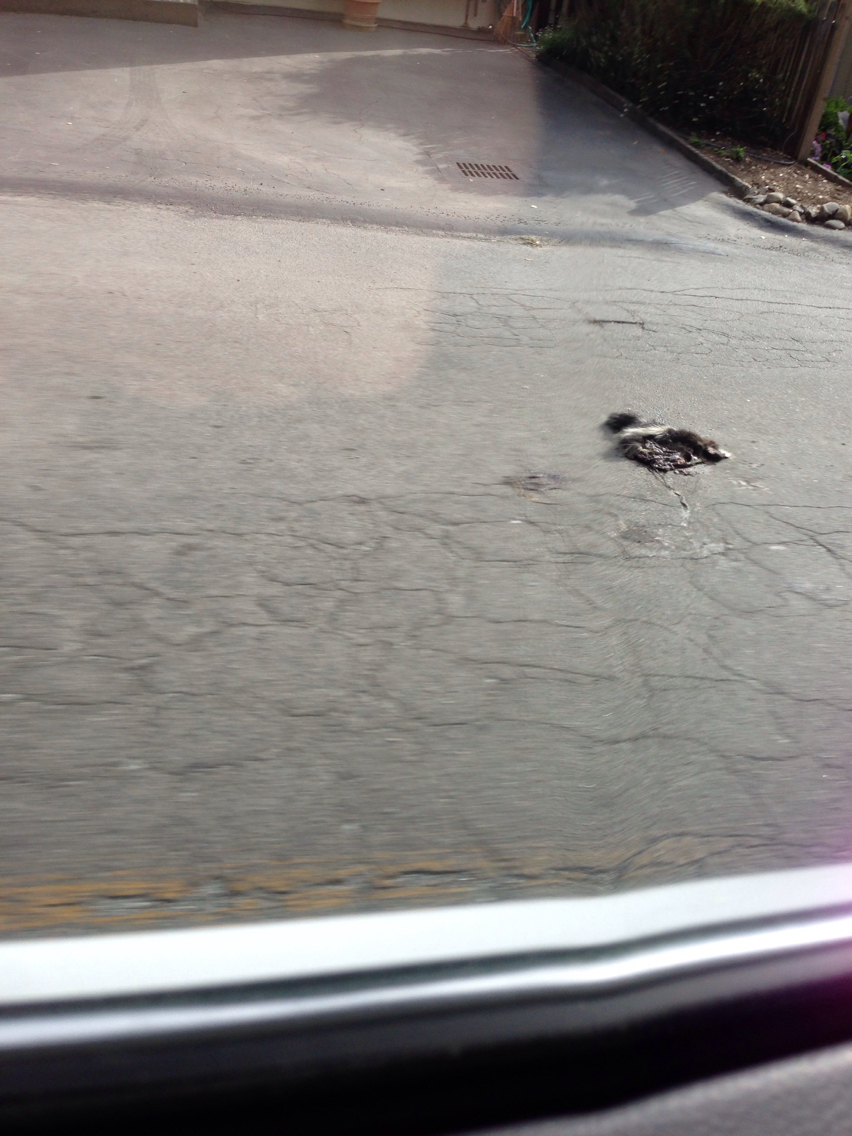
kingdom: Animalia
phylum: Chordata
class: Mammalia
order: Carnivora
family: Mephitidae
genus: Mephitis
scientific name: Mephitis mephitis
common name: Striped skunk
